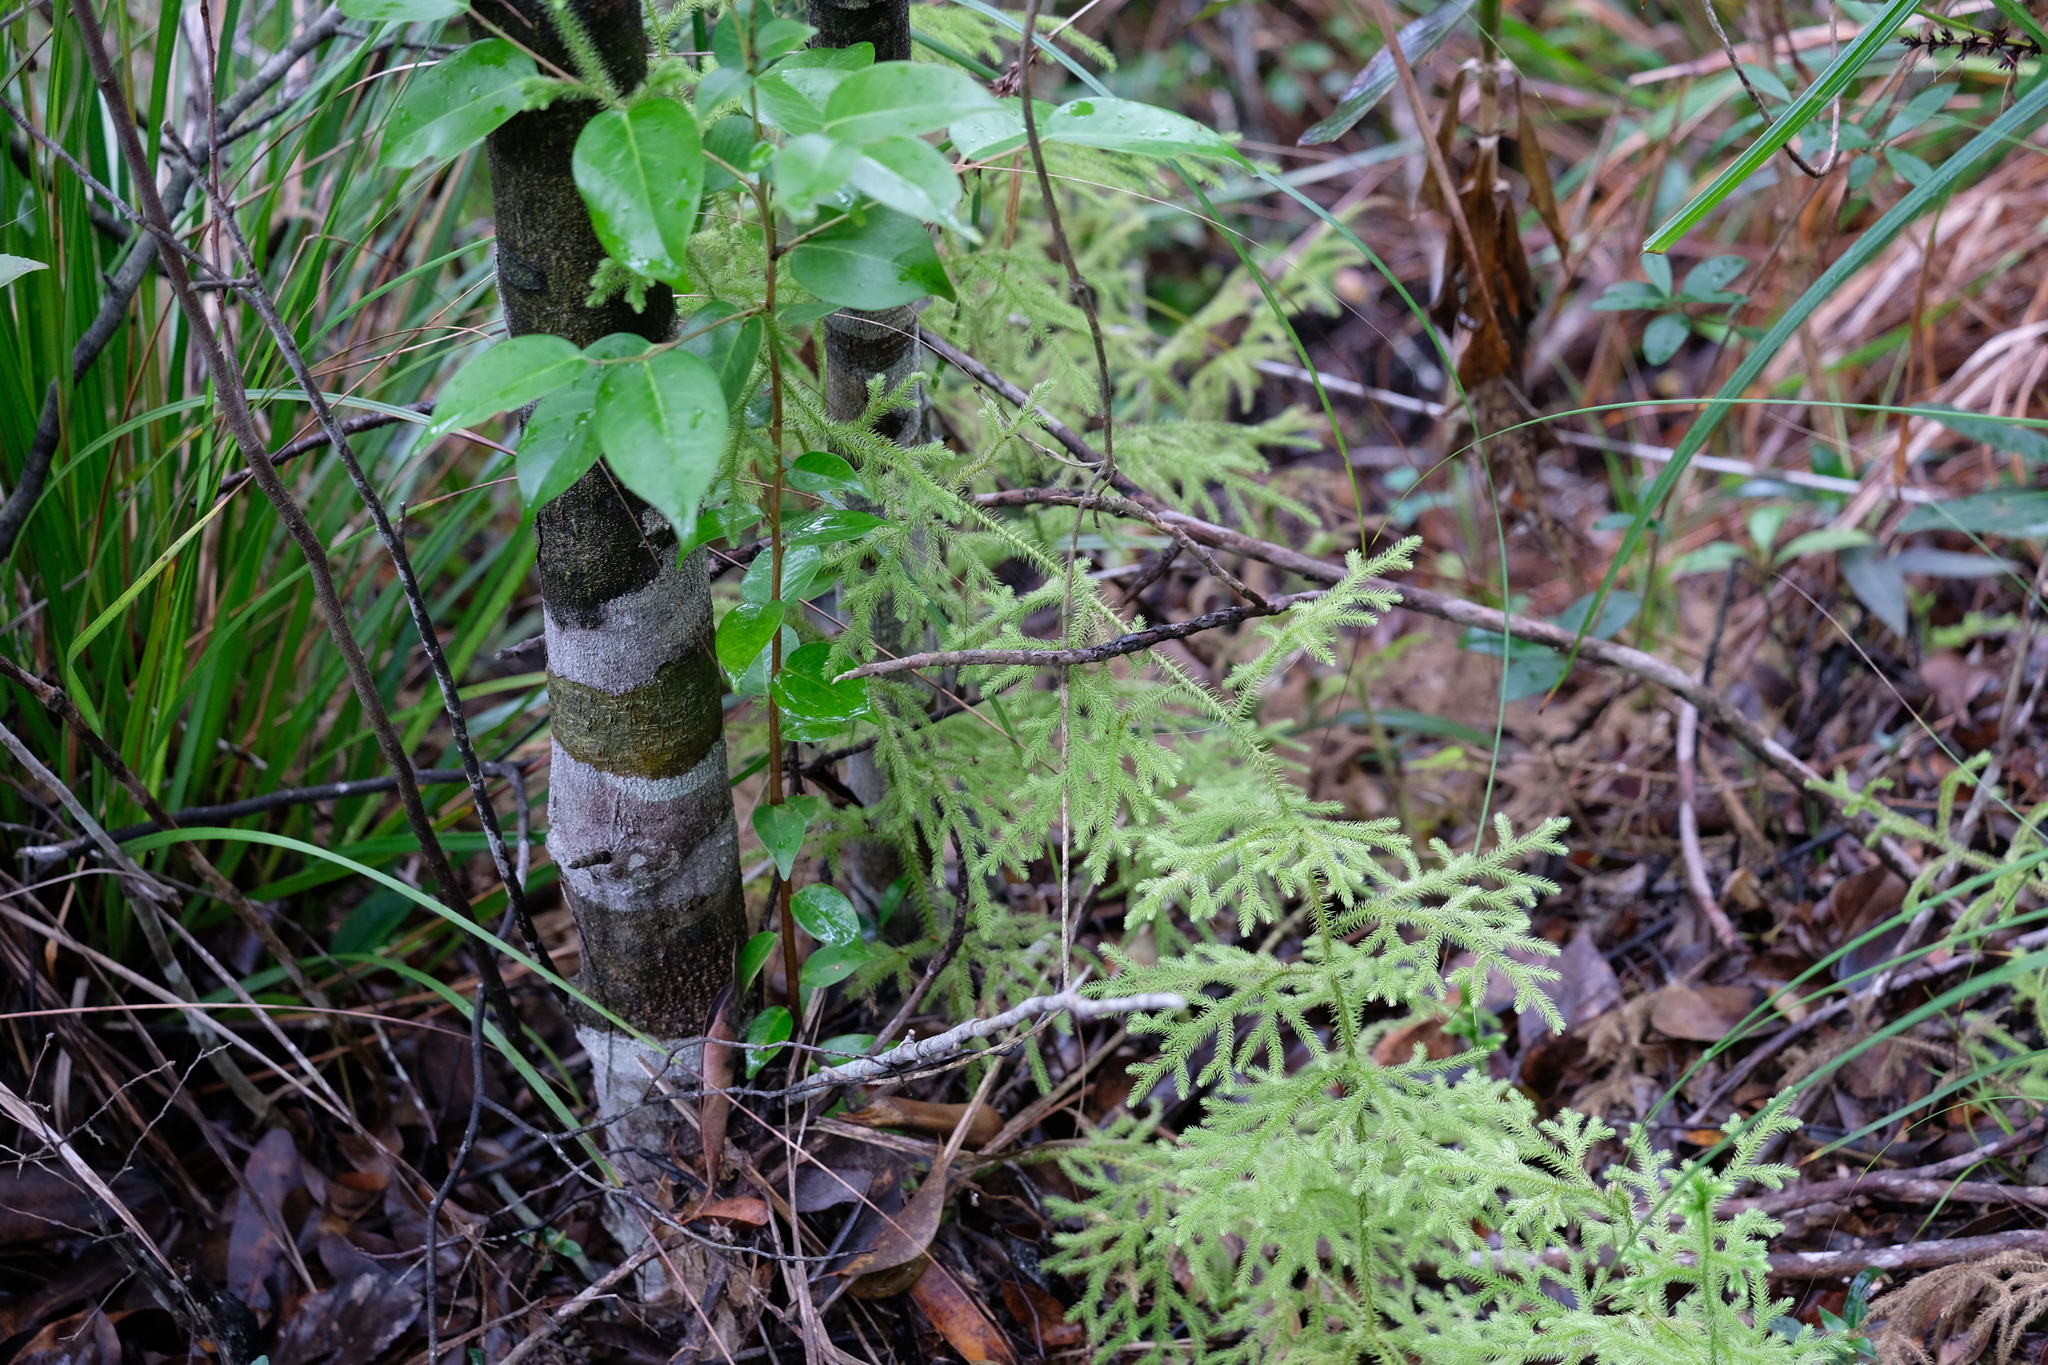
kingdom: Plantae
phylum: Tracheophyta
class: Lycopodiopsida
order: Lycopodiales
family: Lycopodiaceae
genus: Palhinhaea
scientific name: Palhinhaea cernua
